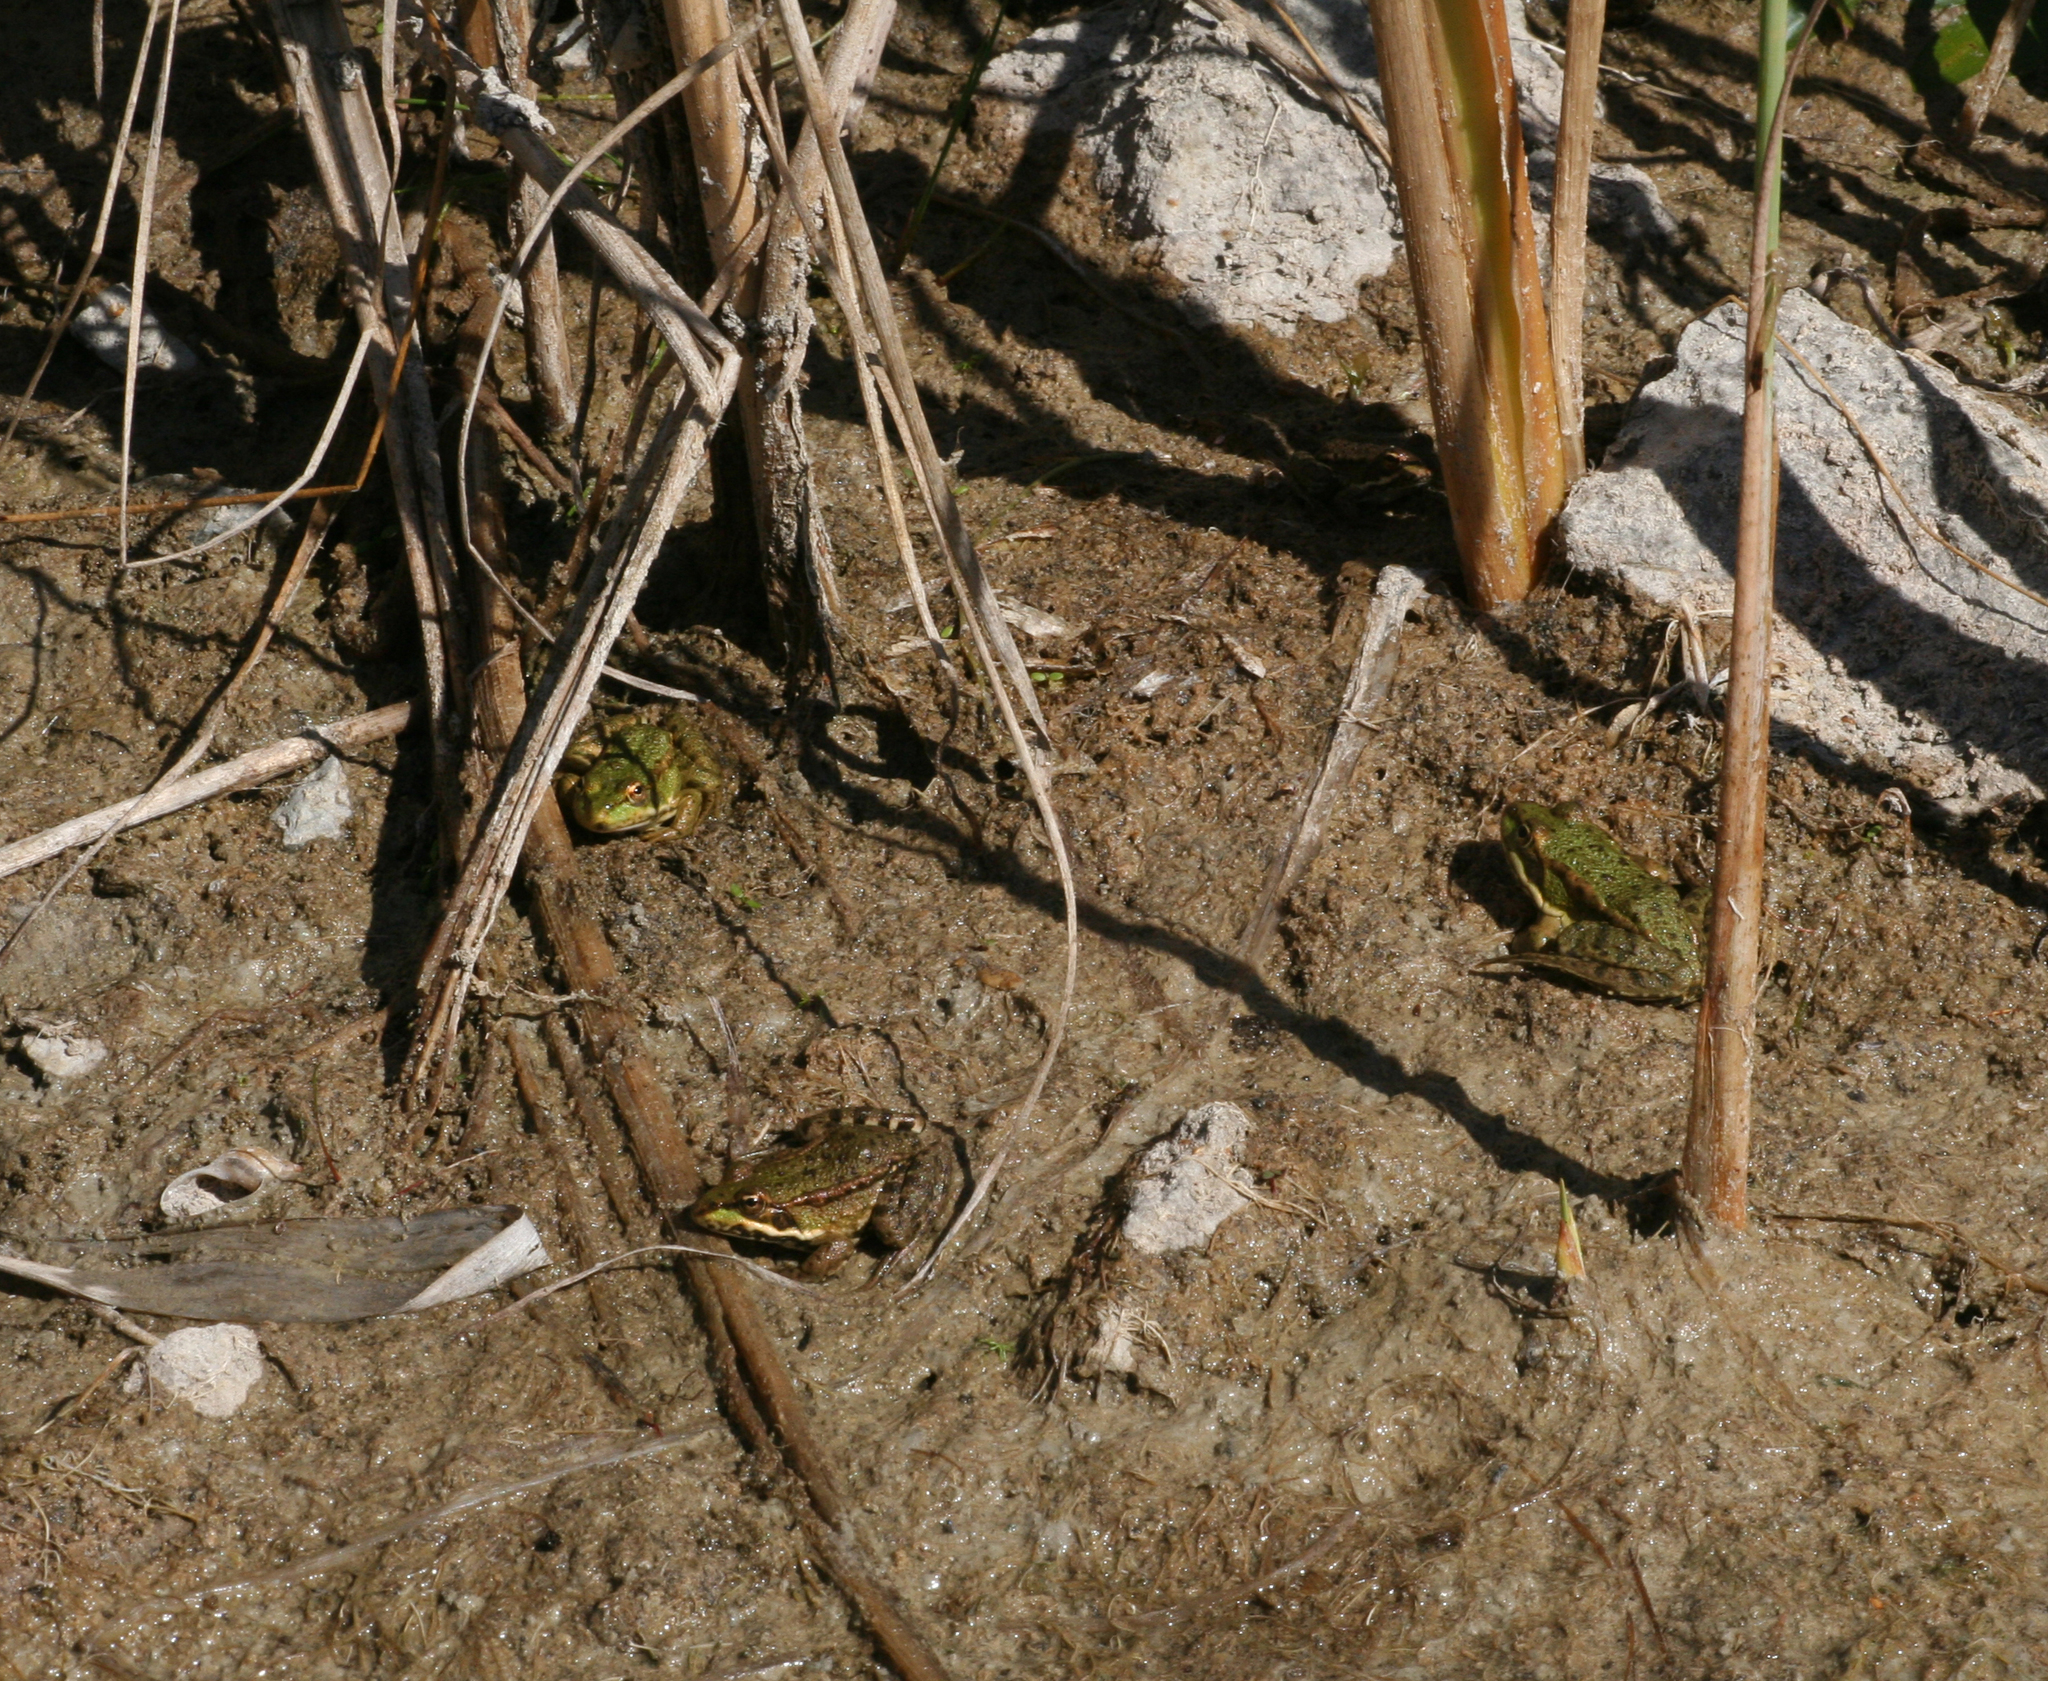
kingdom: Animalia
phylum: Chordata
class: Amphibia
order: Anura
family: Ranidae
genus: Pelophylax
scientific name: Pelophylax
